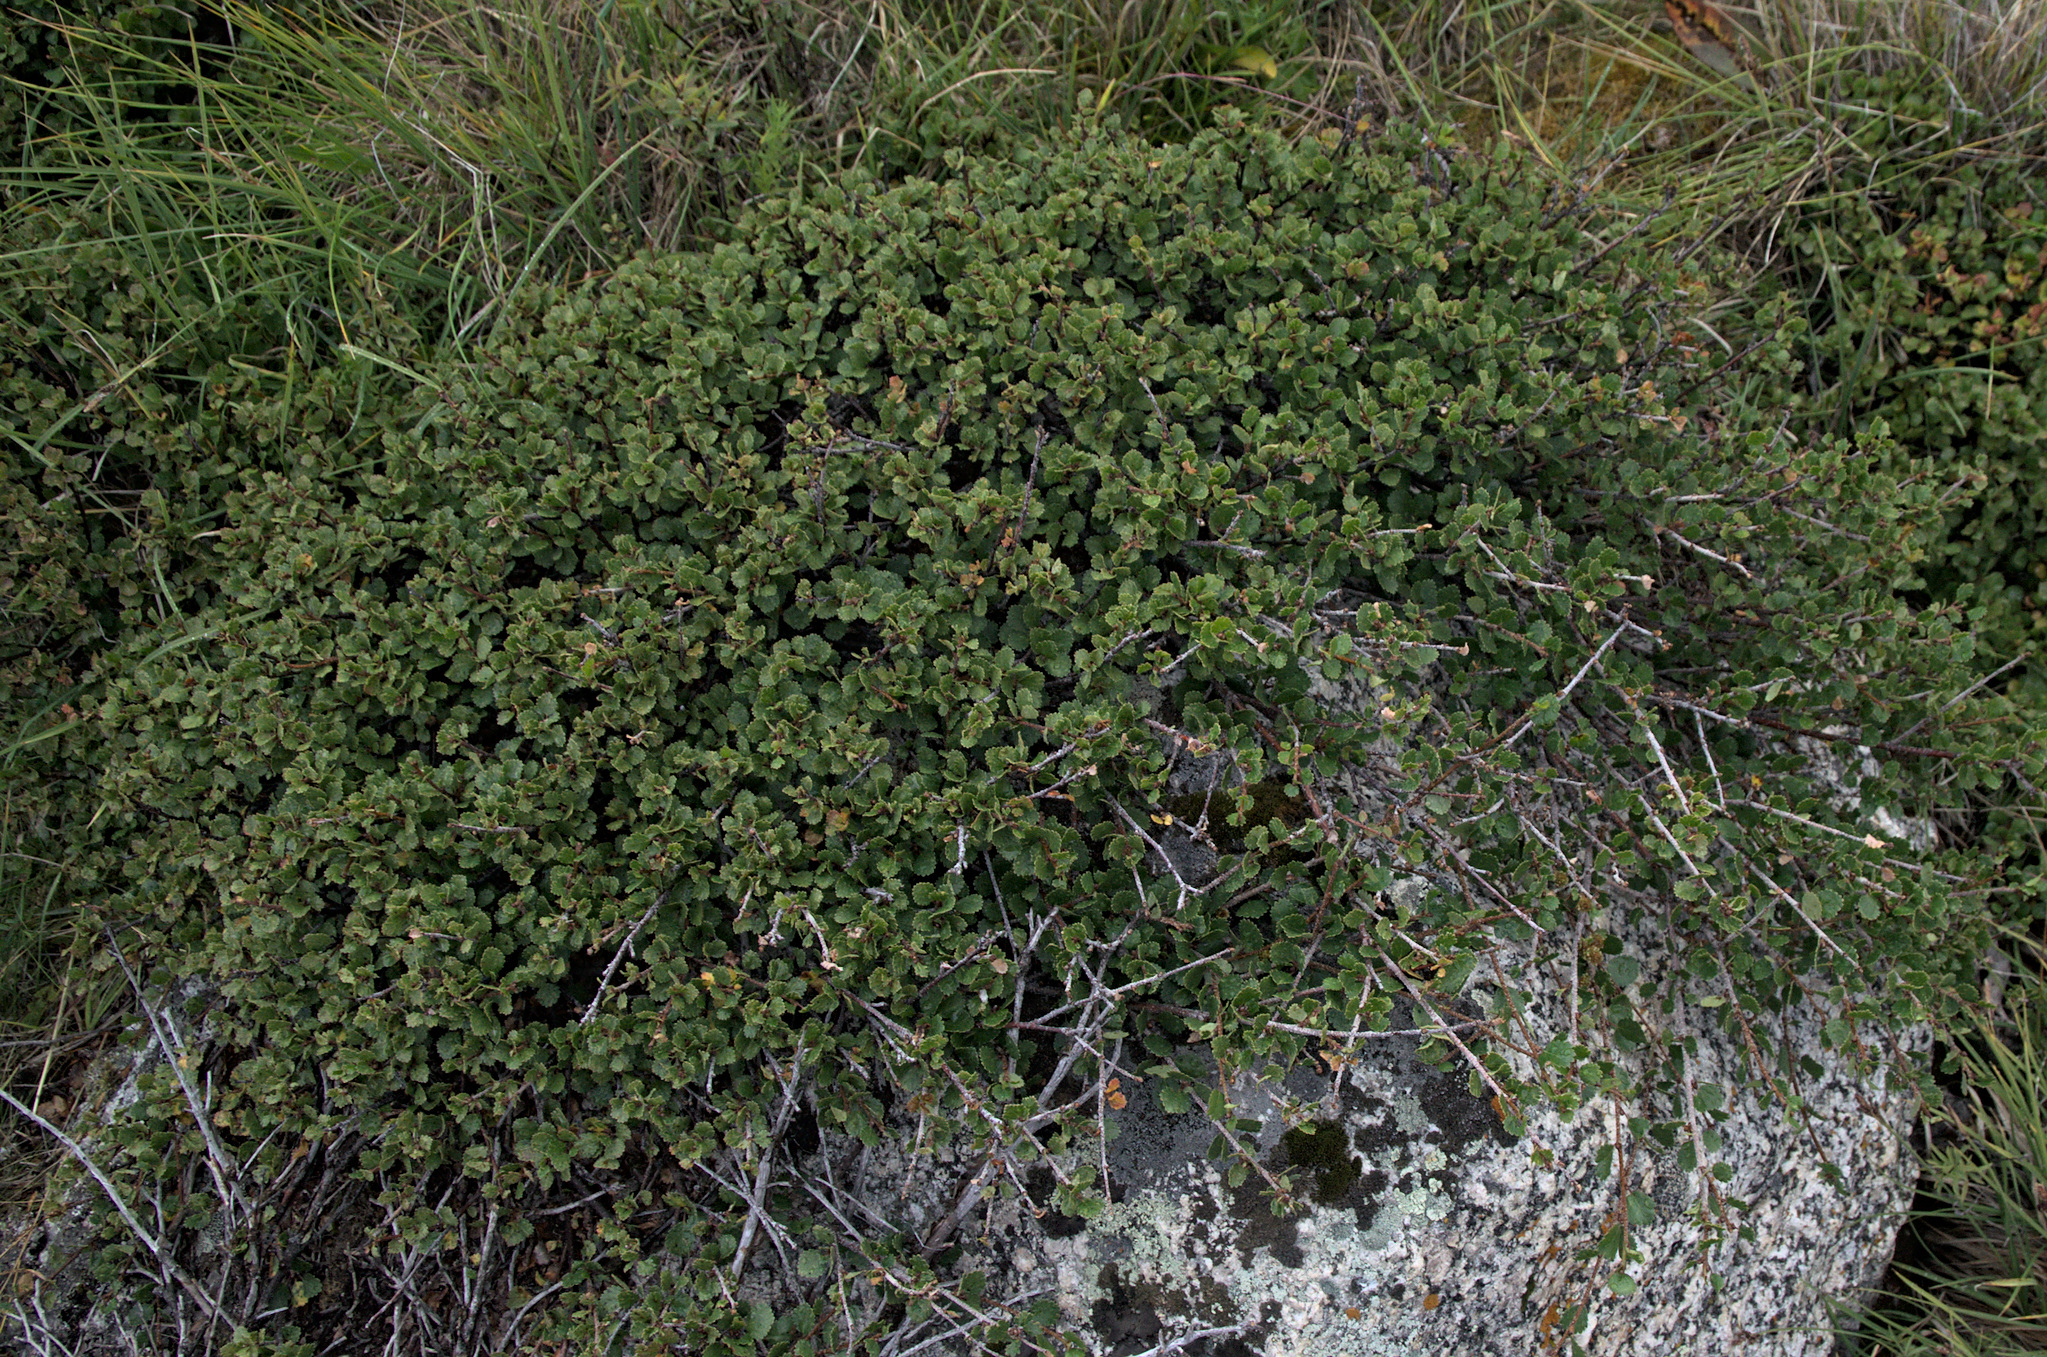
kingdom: Plantae
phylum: Tracheophyta
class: Magnoliopsida
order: Fagales
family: Betulaceae
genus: Betula
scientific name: Betula nana
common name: Arctic dwarf birch
